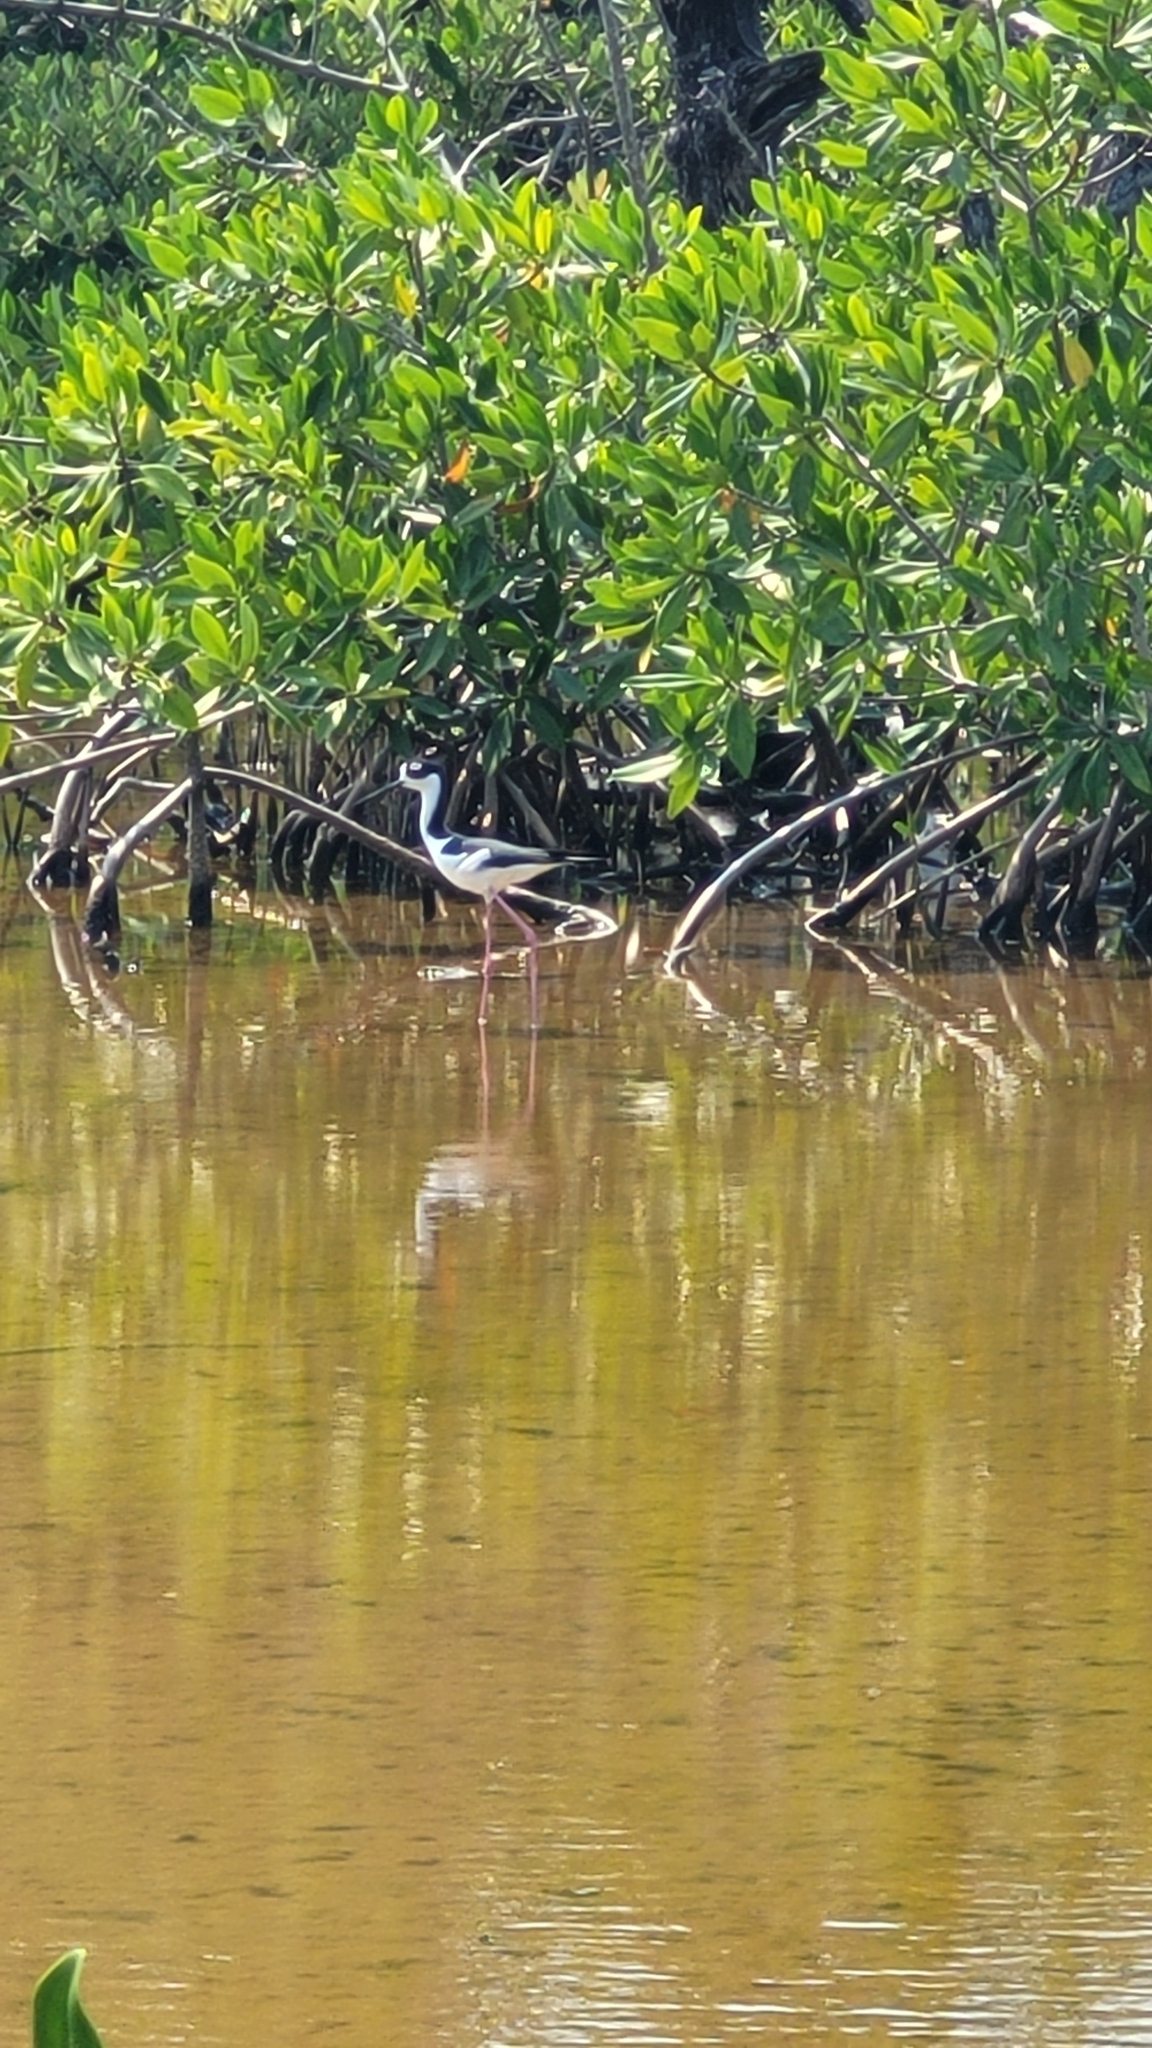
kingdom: Animalia
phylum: Chordata
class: Aves
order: Charadriiformes
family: Recurvirostridae
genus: Himantopus
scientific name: Himantopus mexicanus
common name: Black-necked stilt
